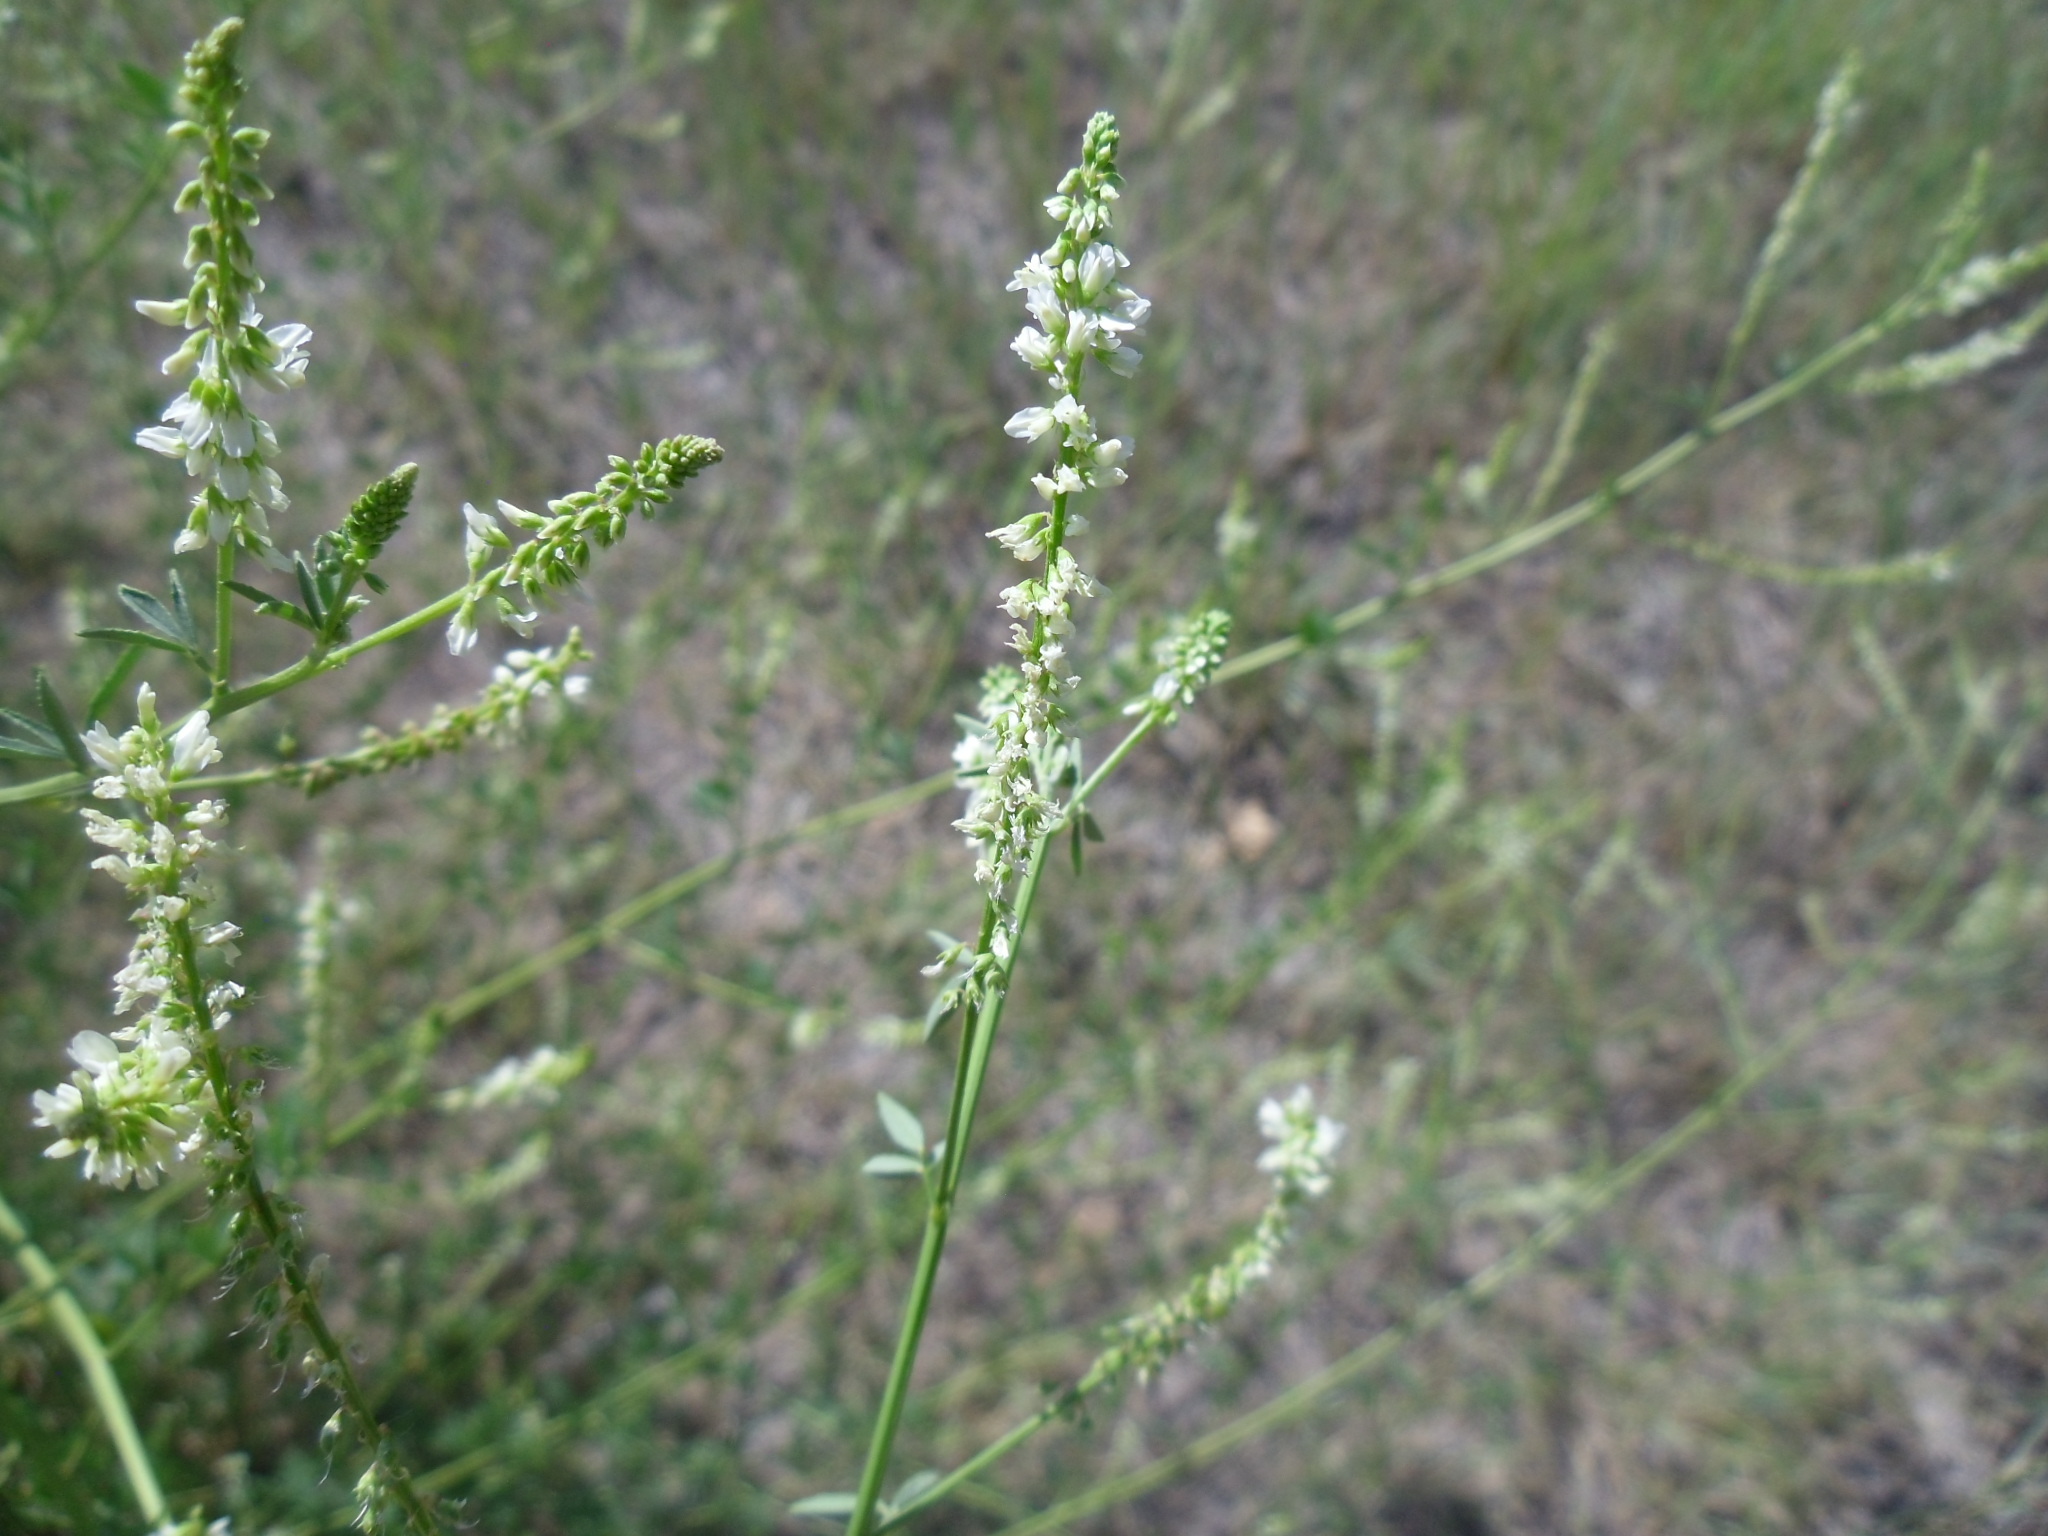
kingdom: Plantae
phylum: Tracheophyta
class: Magnoliopsida
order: Fabales
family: Fabaceae
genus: Melilotus
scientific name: Melilotus albus
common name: White melilot
